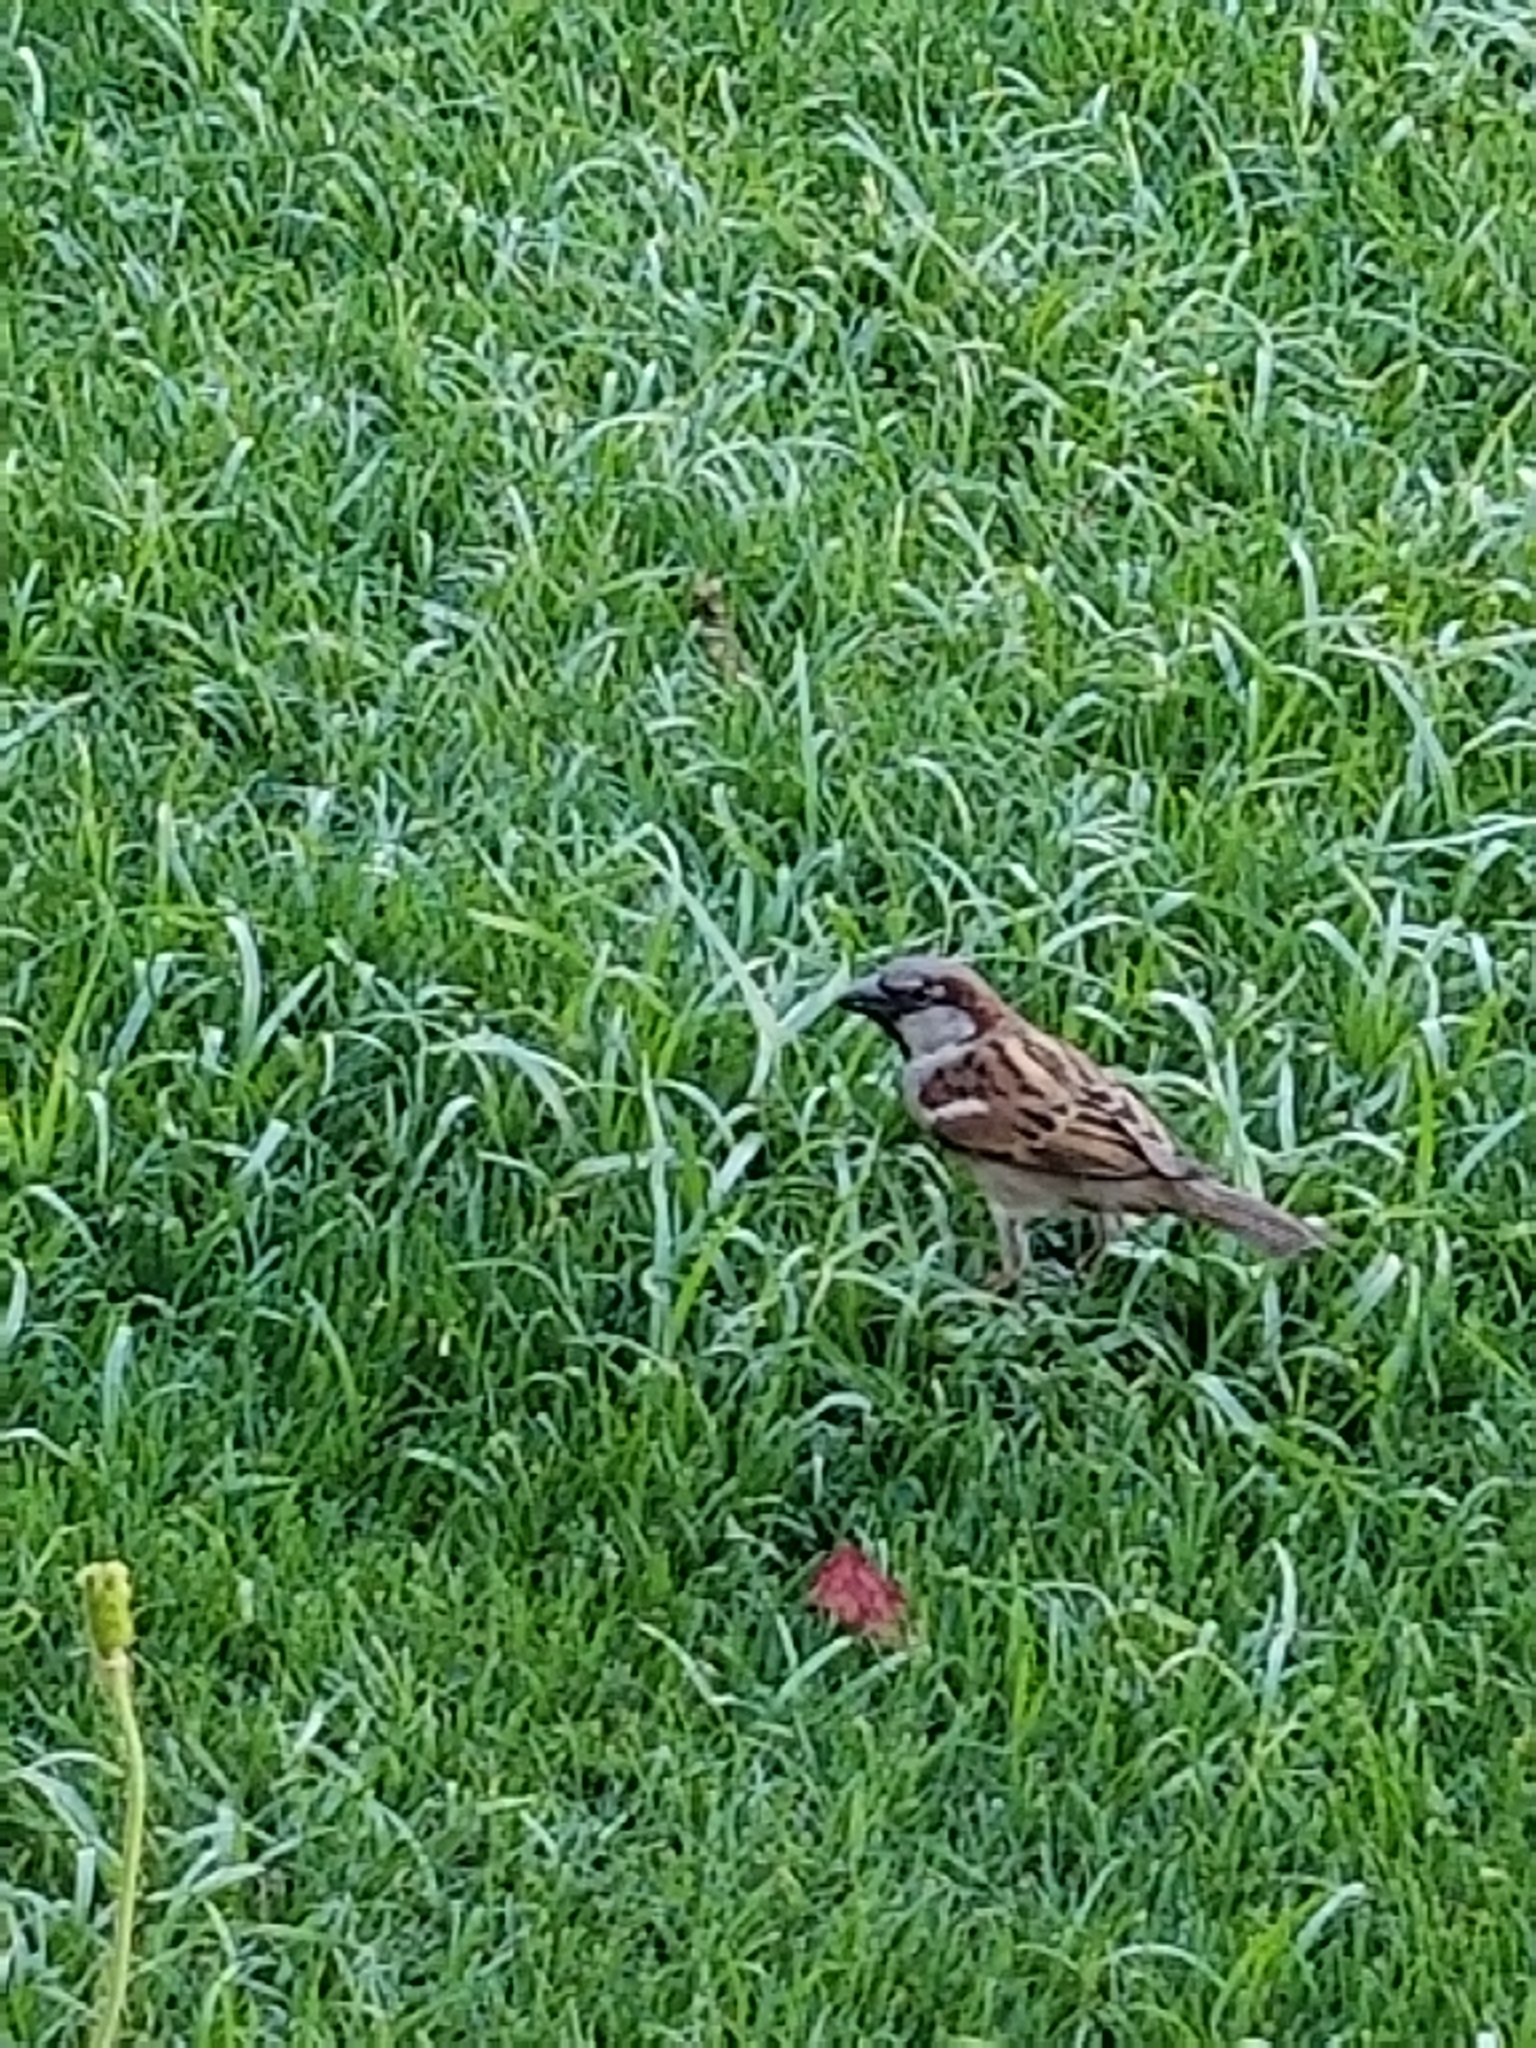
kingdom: Animalia
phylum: Chordata
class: Aves
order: Passeriformes
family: Passeridae
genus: Passer
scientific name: Passer domesticus
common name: House sparrow
